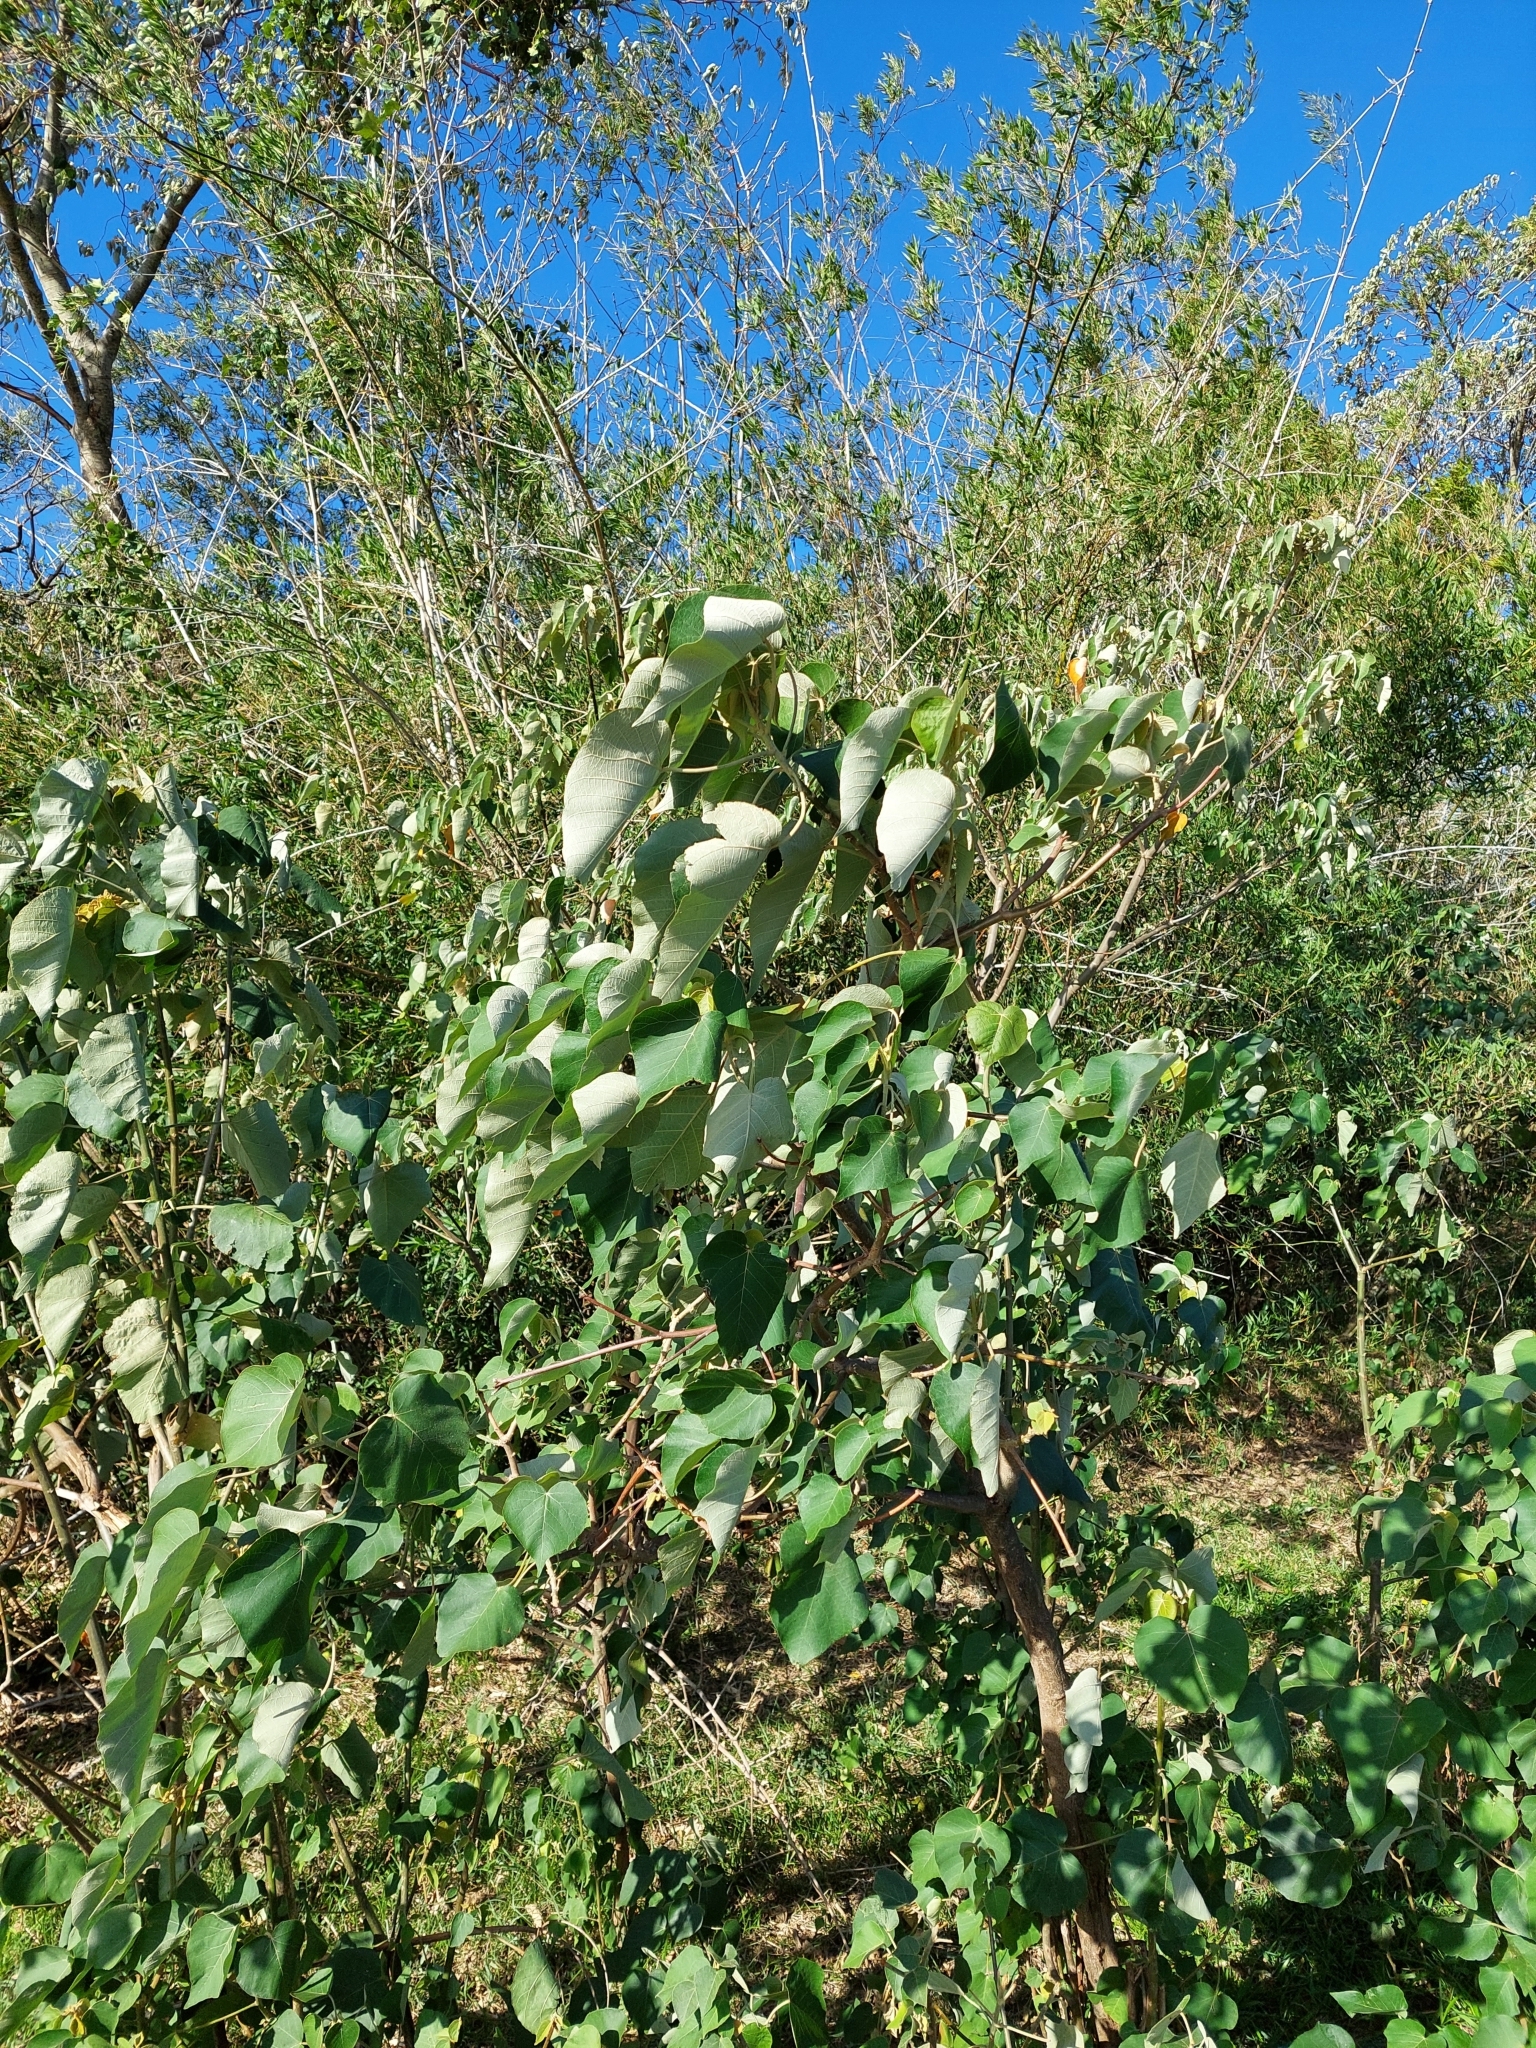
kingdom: Plantae
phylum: Tracheophyta
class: Magnoliopsida
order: Malpighiales
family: Euphorbiaceae
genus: Croton
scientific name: Croton urucurana
